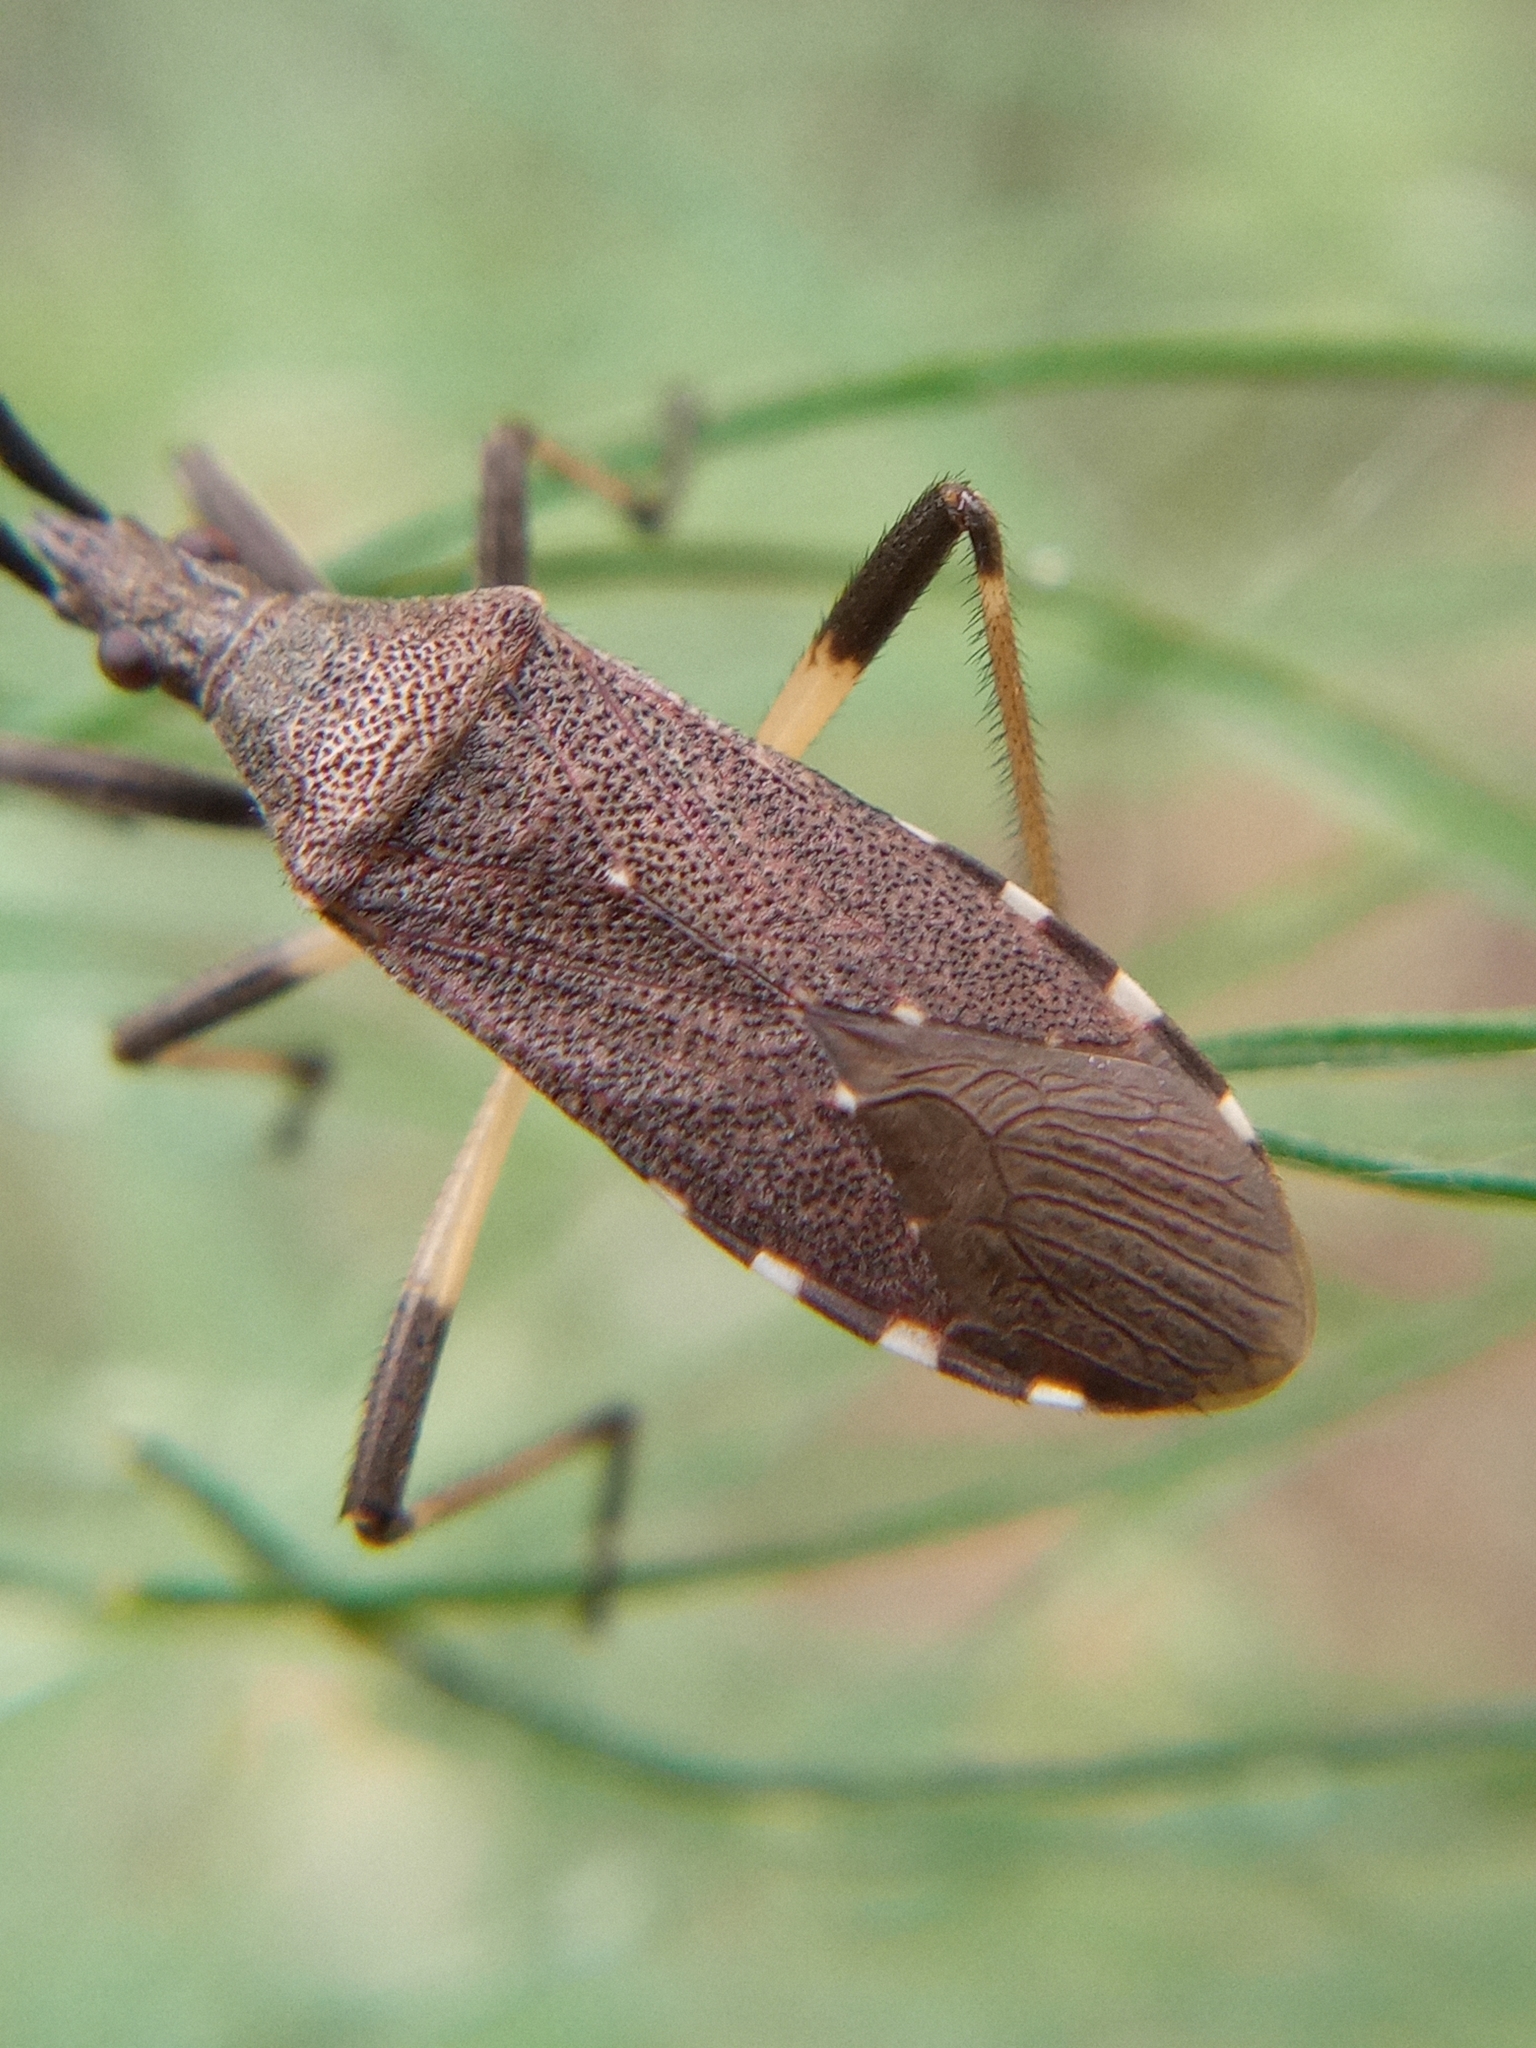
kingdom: Animalia
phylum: Arthropoda
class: Insecta
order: Hemiptera
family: Stenocephalidae
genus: Dicranocephalus
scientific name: Dicranocephalus agilis
